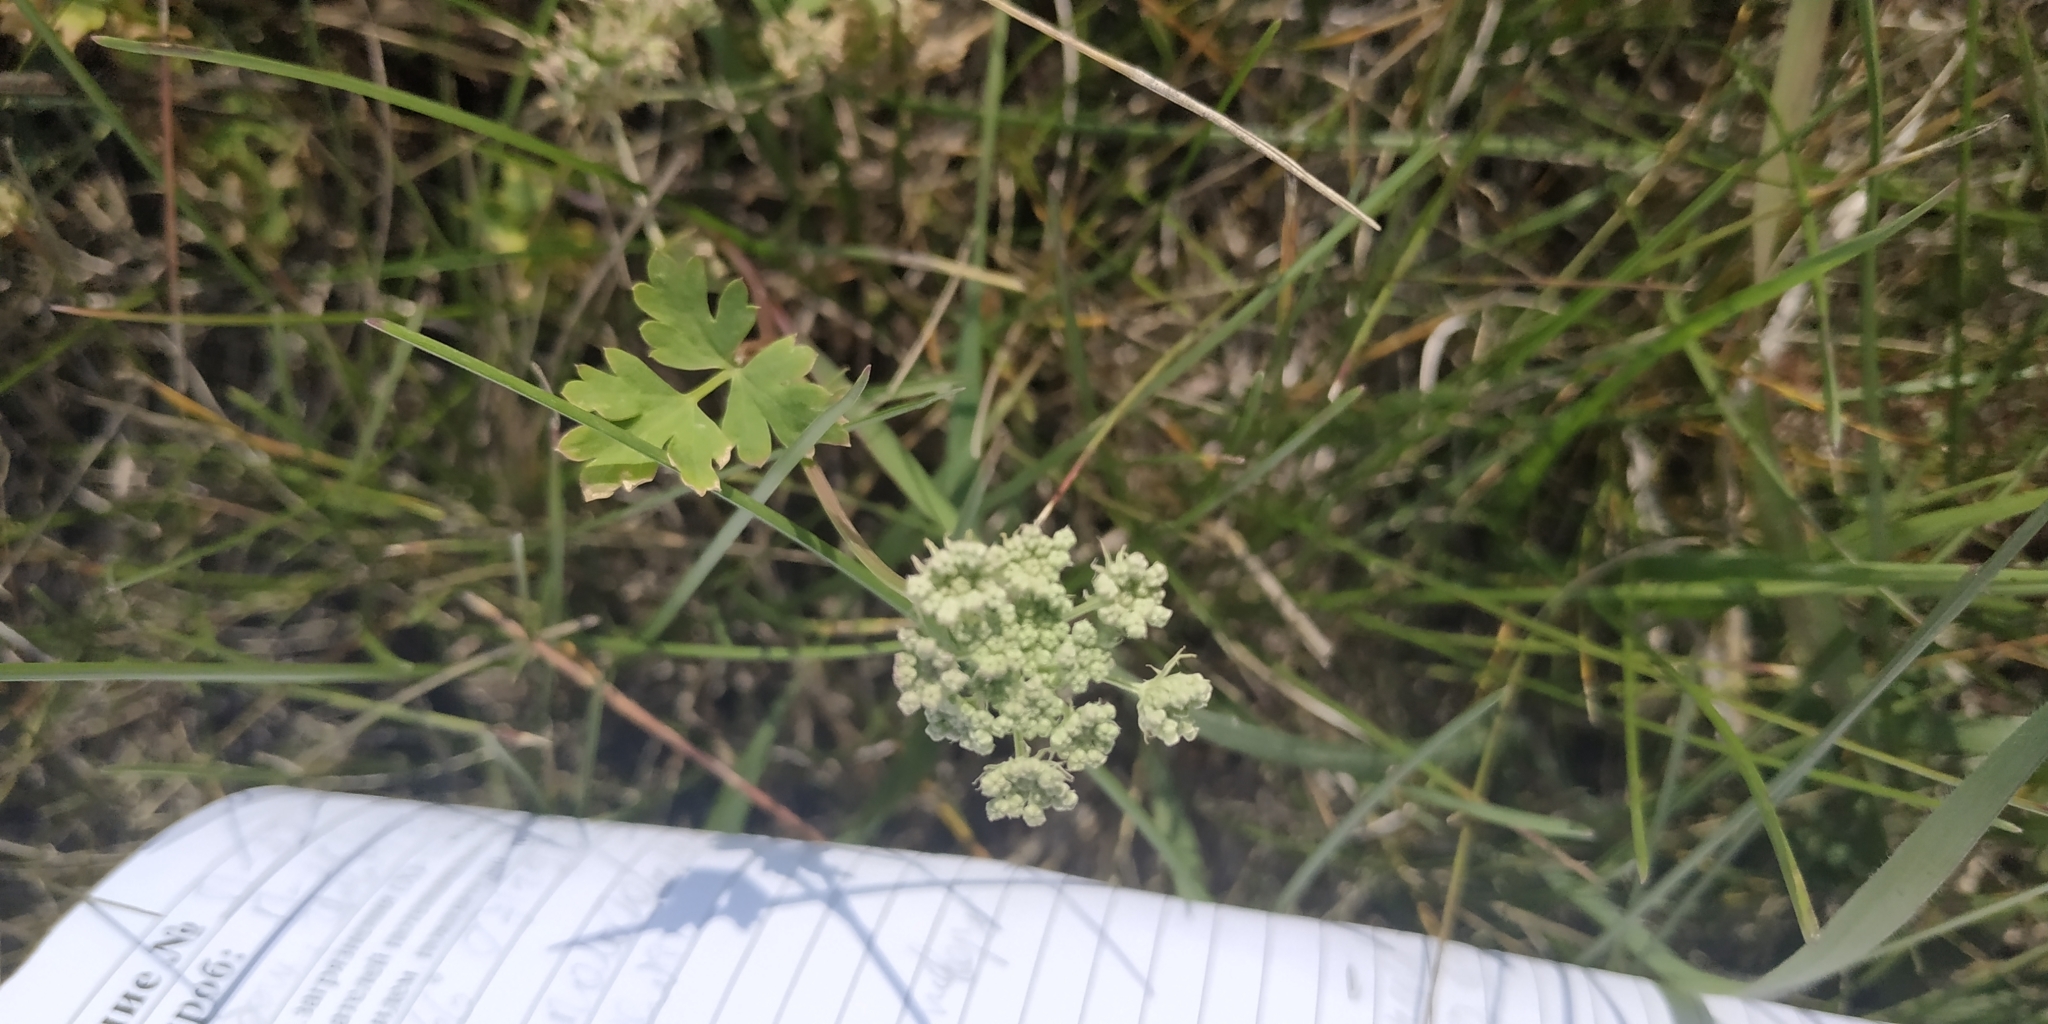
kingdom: Plantae
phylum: Tracheophyta
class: Magnoliopsida
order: Apiales
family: Apiaceae
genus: Pimpinella
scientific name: Pimpinella saxifraga
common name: Burnet-saxifrage
